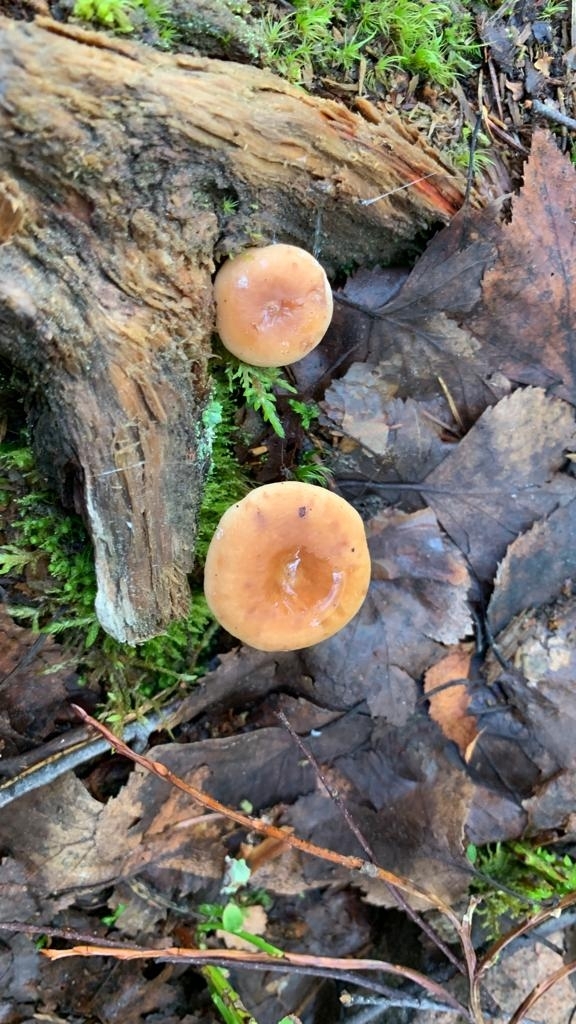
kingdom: Fungi
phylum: Basidiomycota
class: Agaricomycetes
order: Russulales
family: Russulaceae
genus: Lactarius
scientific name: Lactarius tabidus
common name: Birch milkcap
